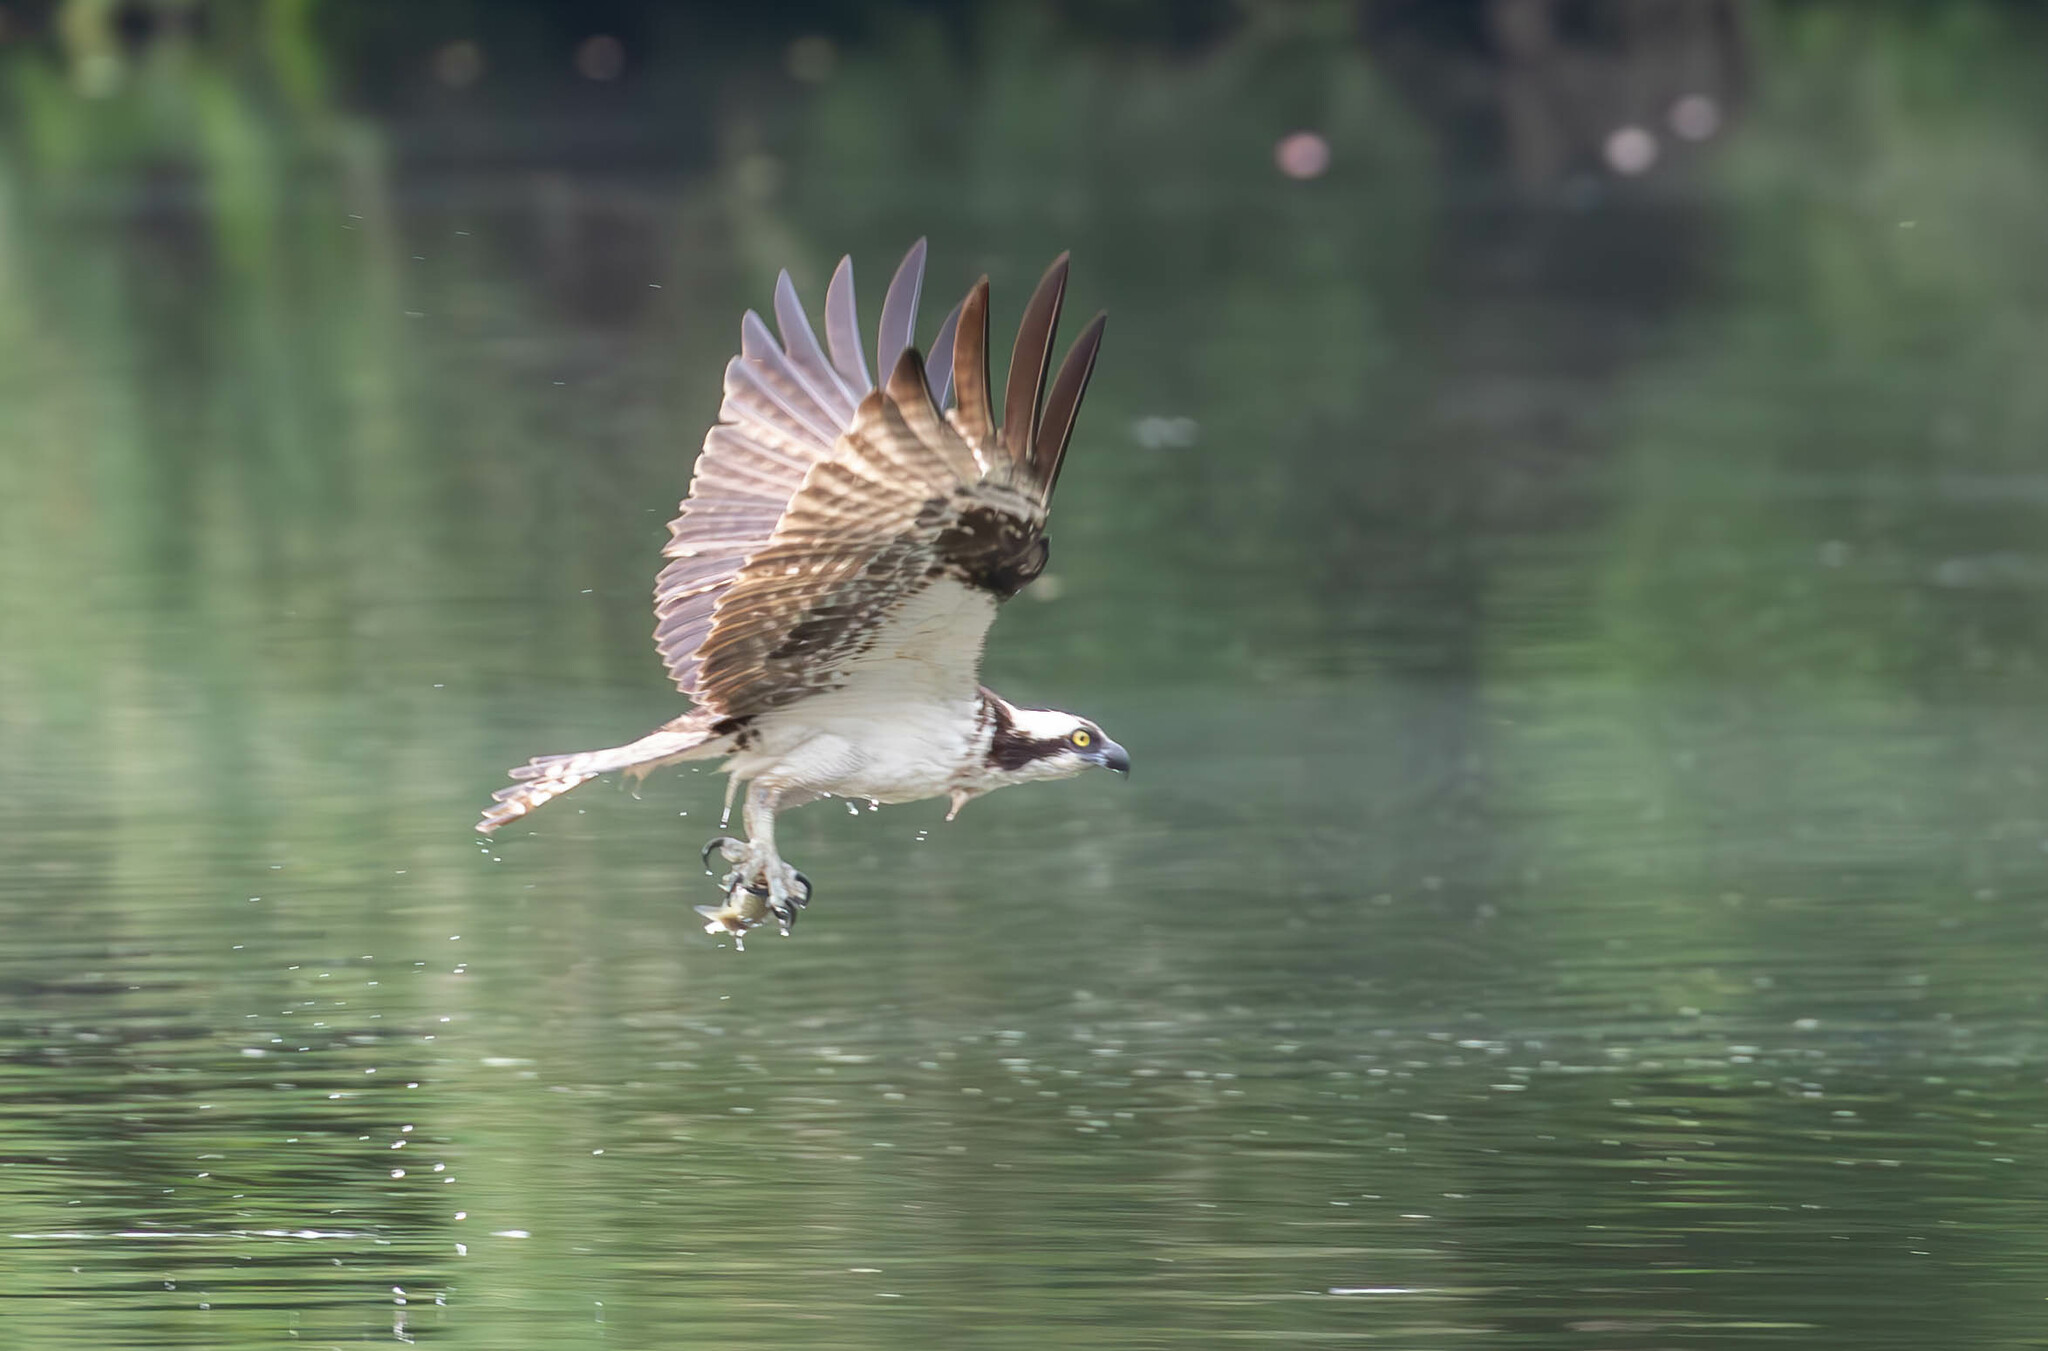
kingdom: Animalia
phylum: Chordata
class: Aves
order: Accipitriformes
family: Pandionidae
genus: Pandion
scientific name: Pandion haliaetus
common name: Osprey
